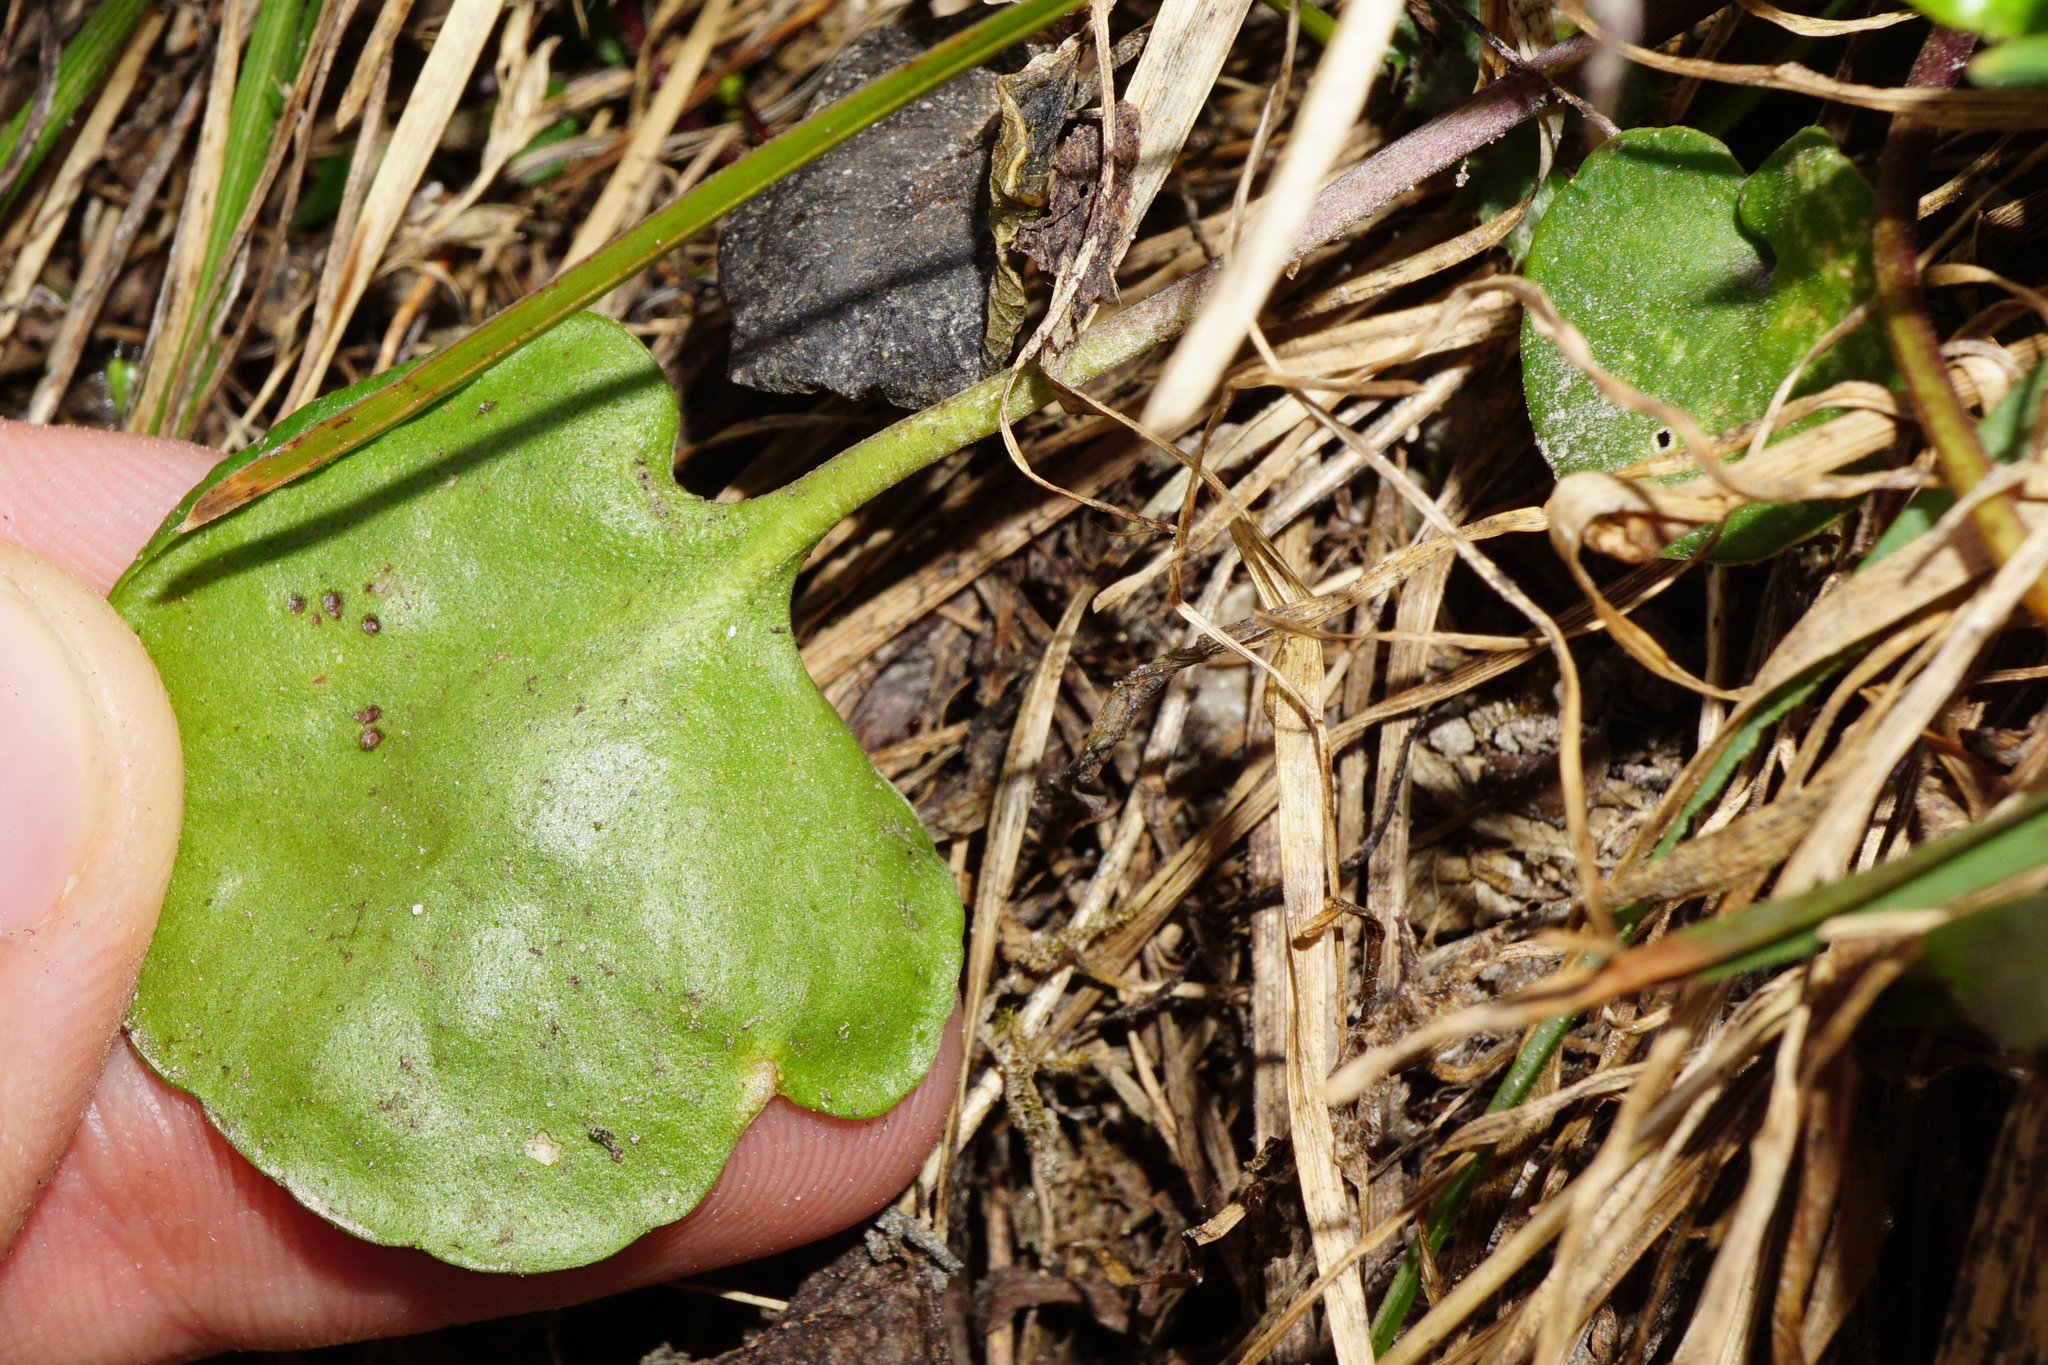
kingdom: Plantae
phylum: Tracheophyta
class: Magnoliopsida
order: Ericales
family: Primulaceae
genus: Soldanella
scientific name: Soldanella alpina
